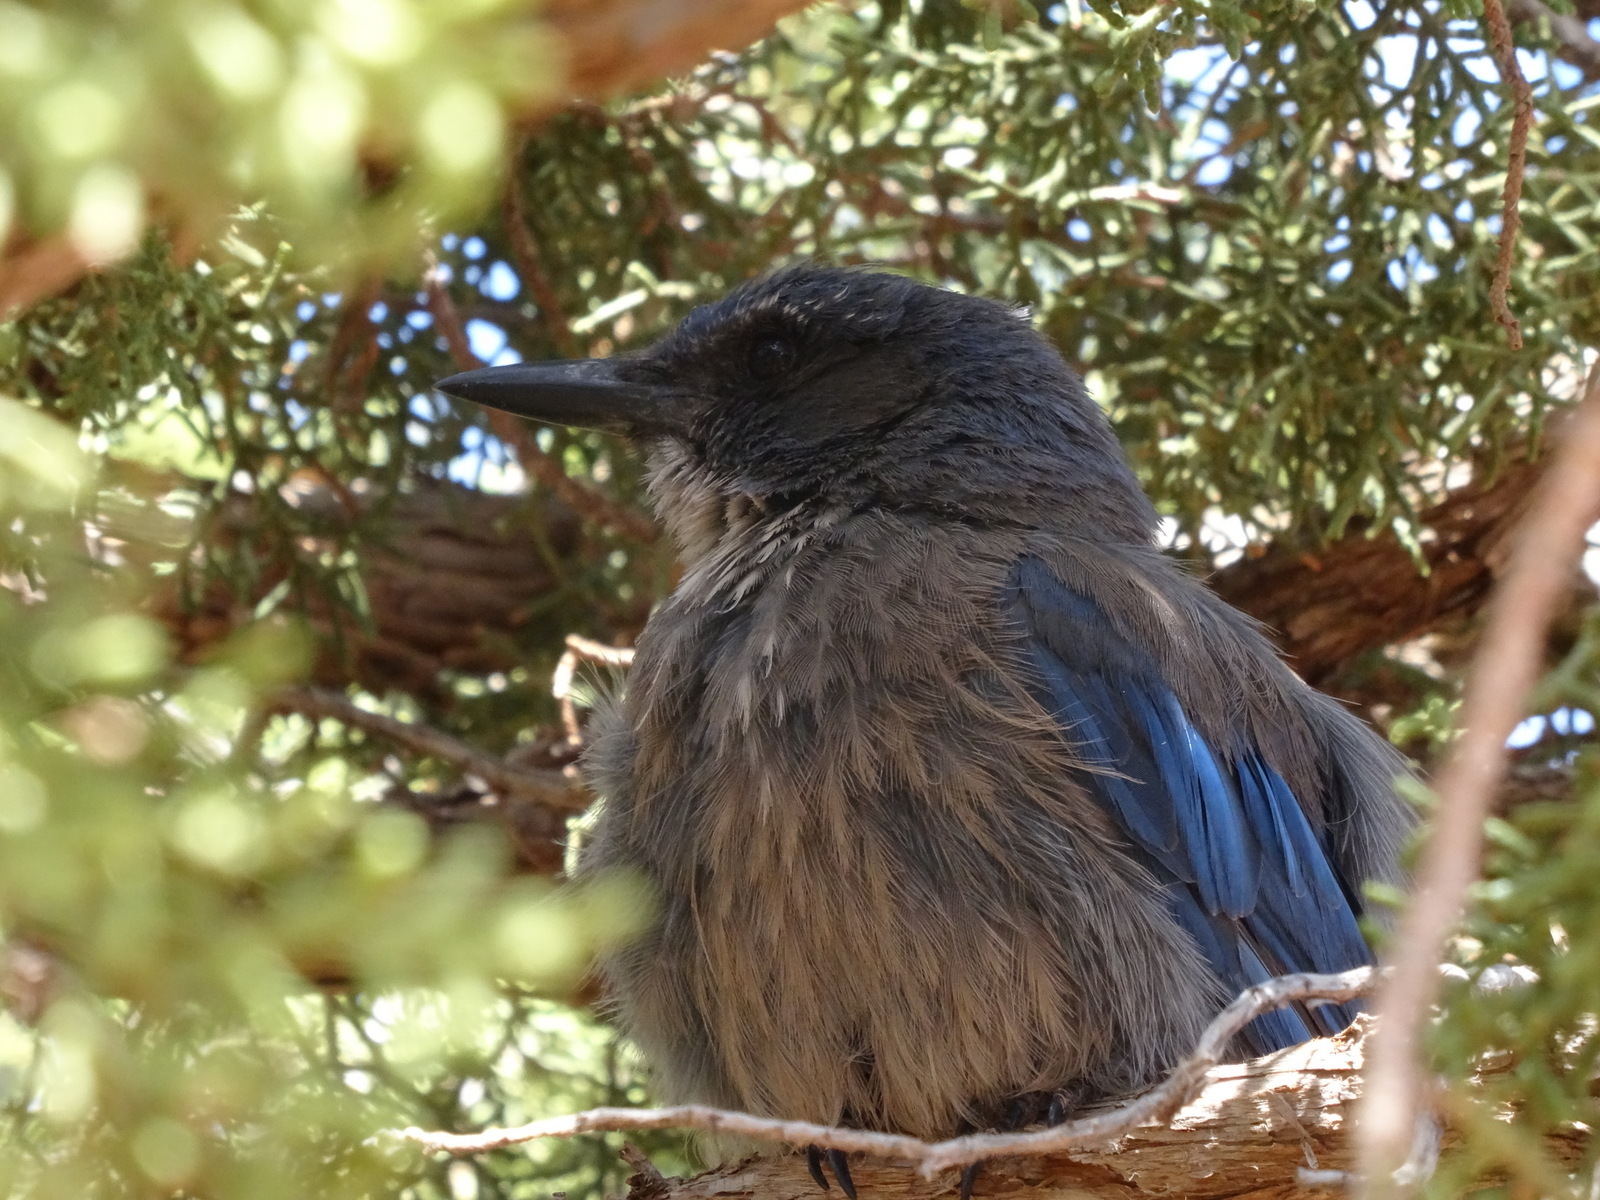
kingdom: Animalia
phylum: Chordata
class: Aves
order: Passeriformes
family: Corvidae
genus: Aphelocoma
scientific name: Aphelocoma woodhouseii
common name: Woodhouse's scrub-jay
